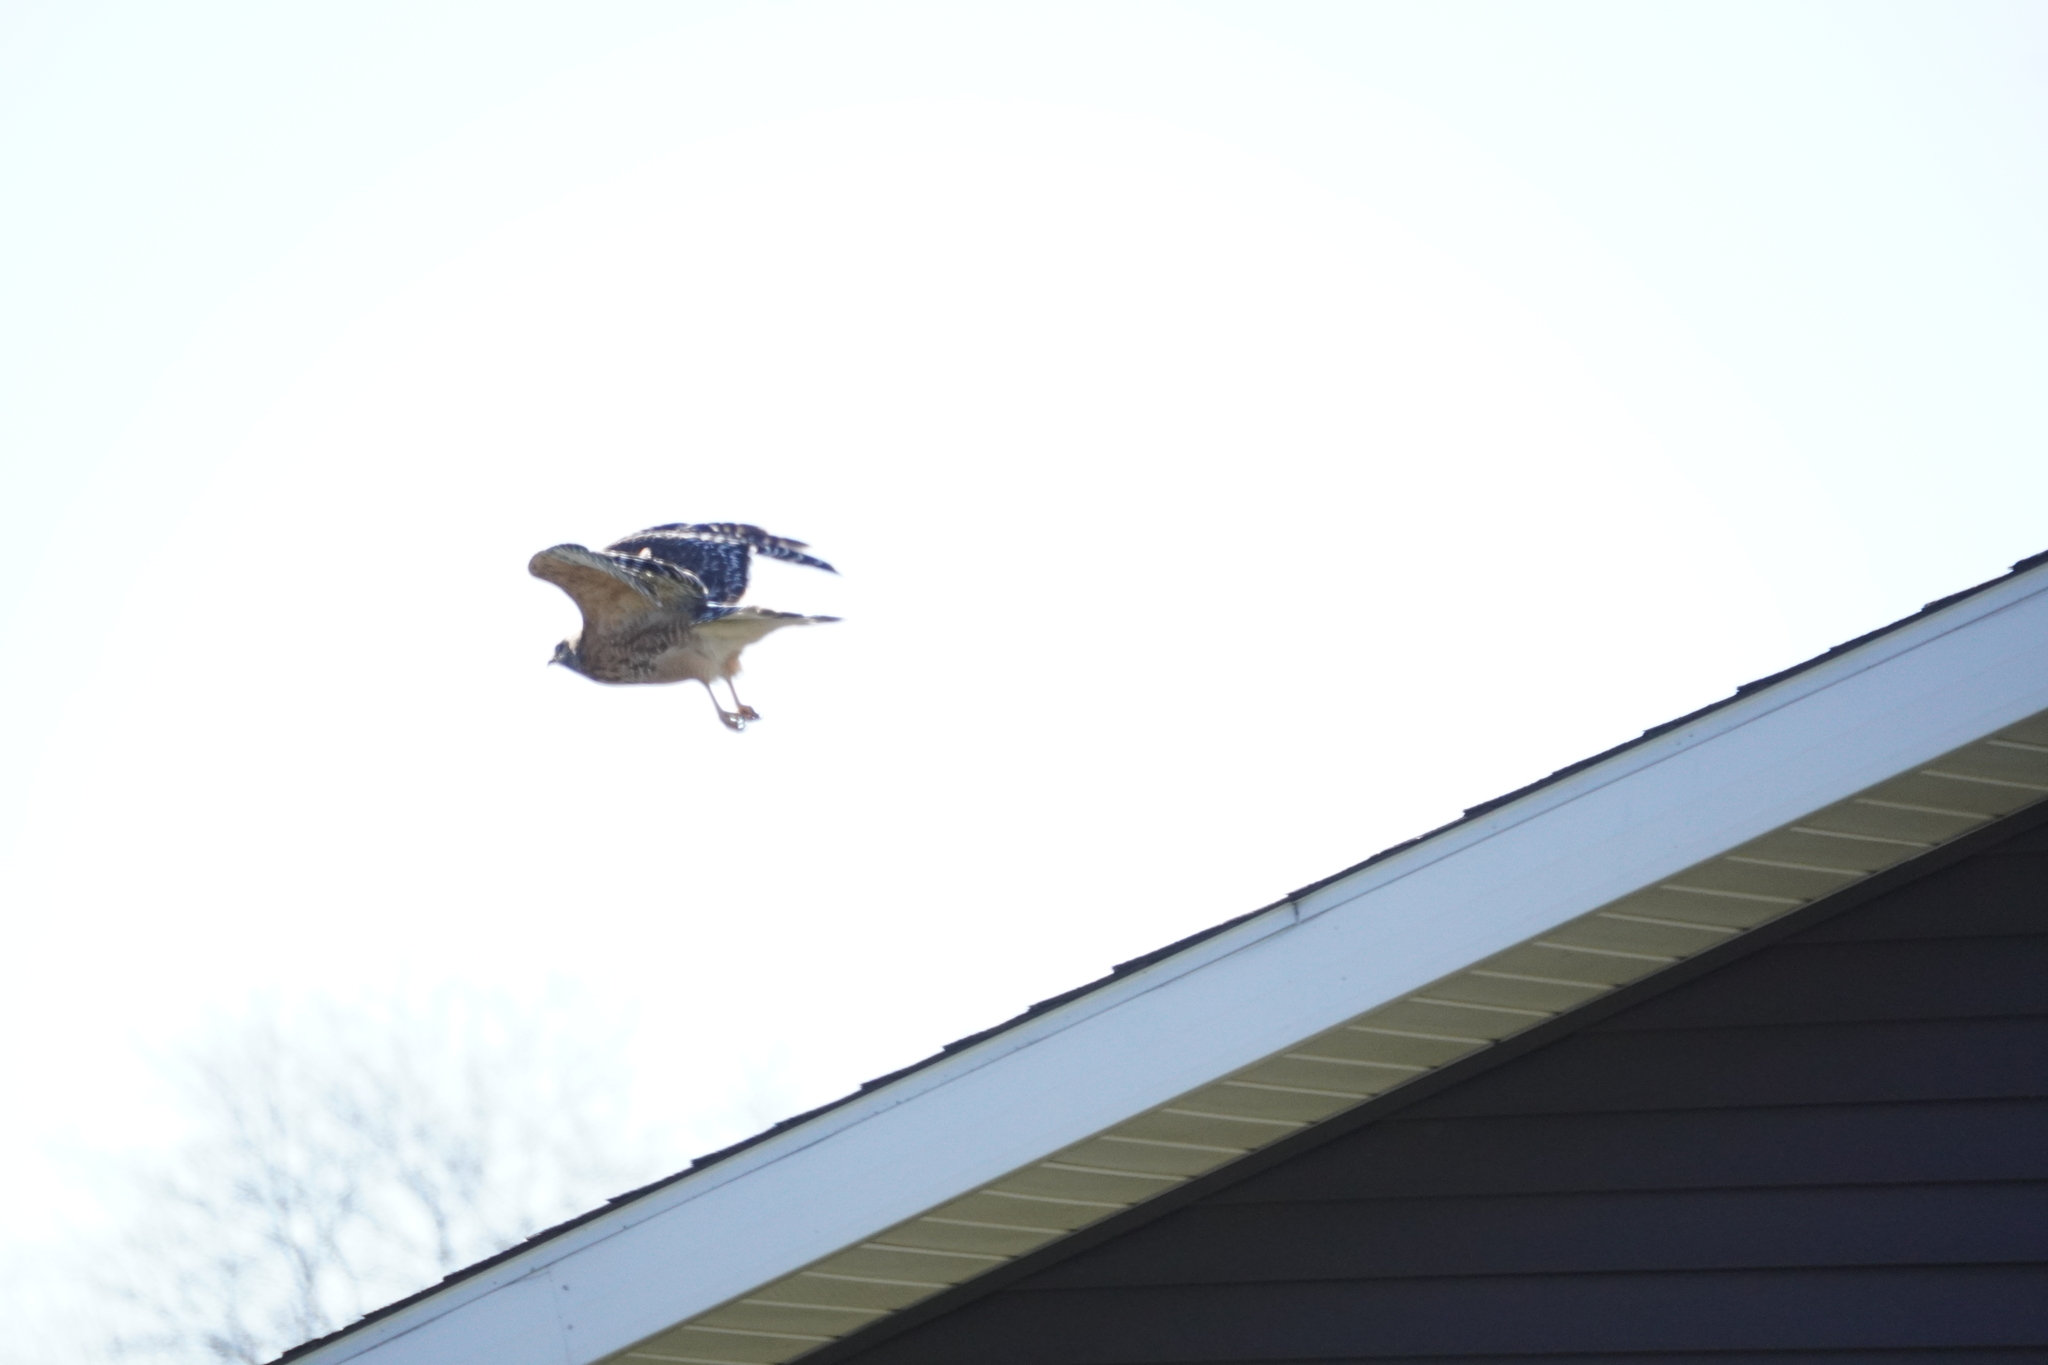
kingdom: Animalia
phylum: Chordata
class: Aves
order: Accipitriformes
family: Accipitridae
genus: Buteo
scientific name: Buteo lineatus
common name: Red-shouldered hawk
